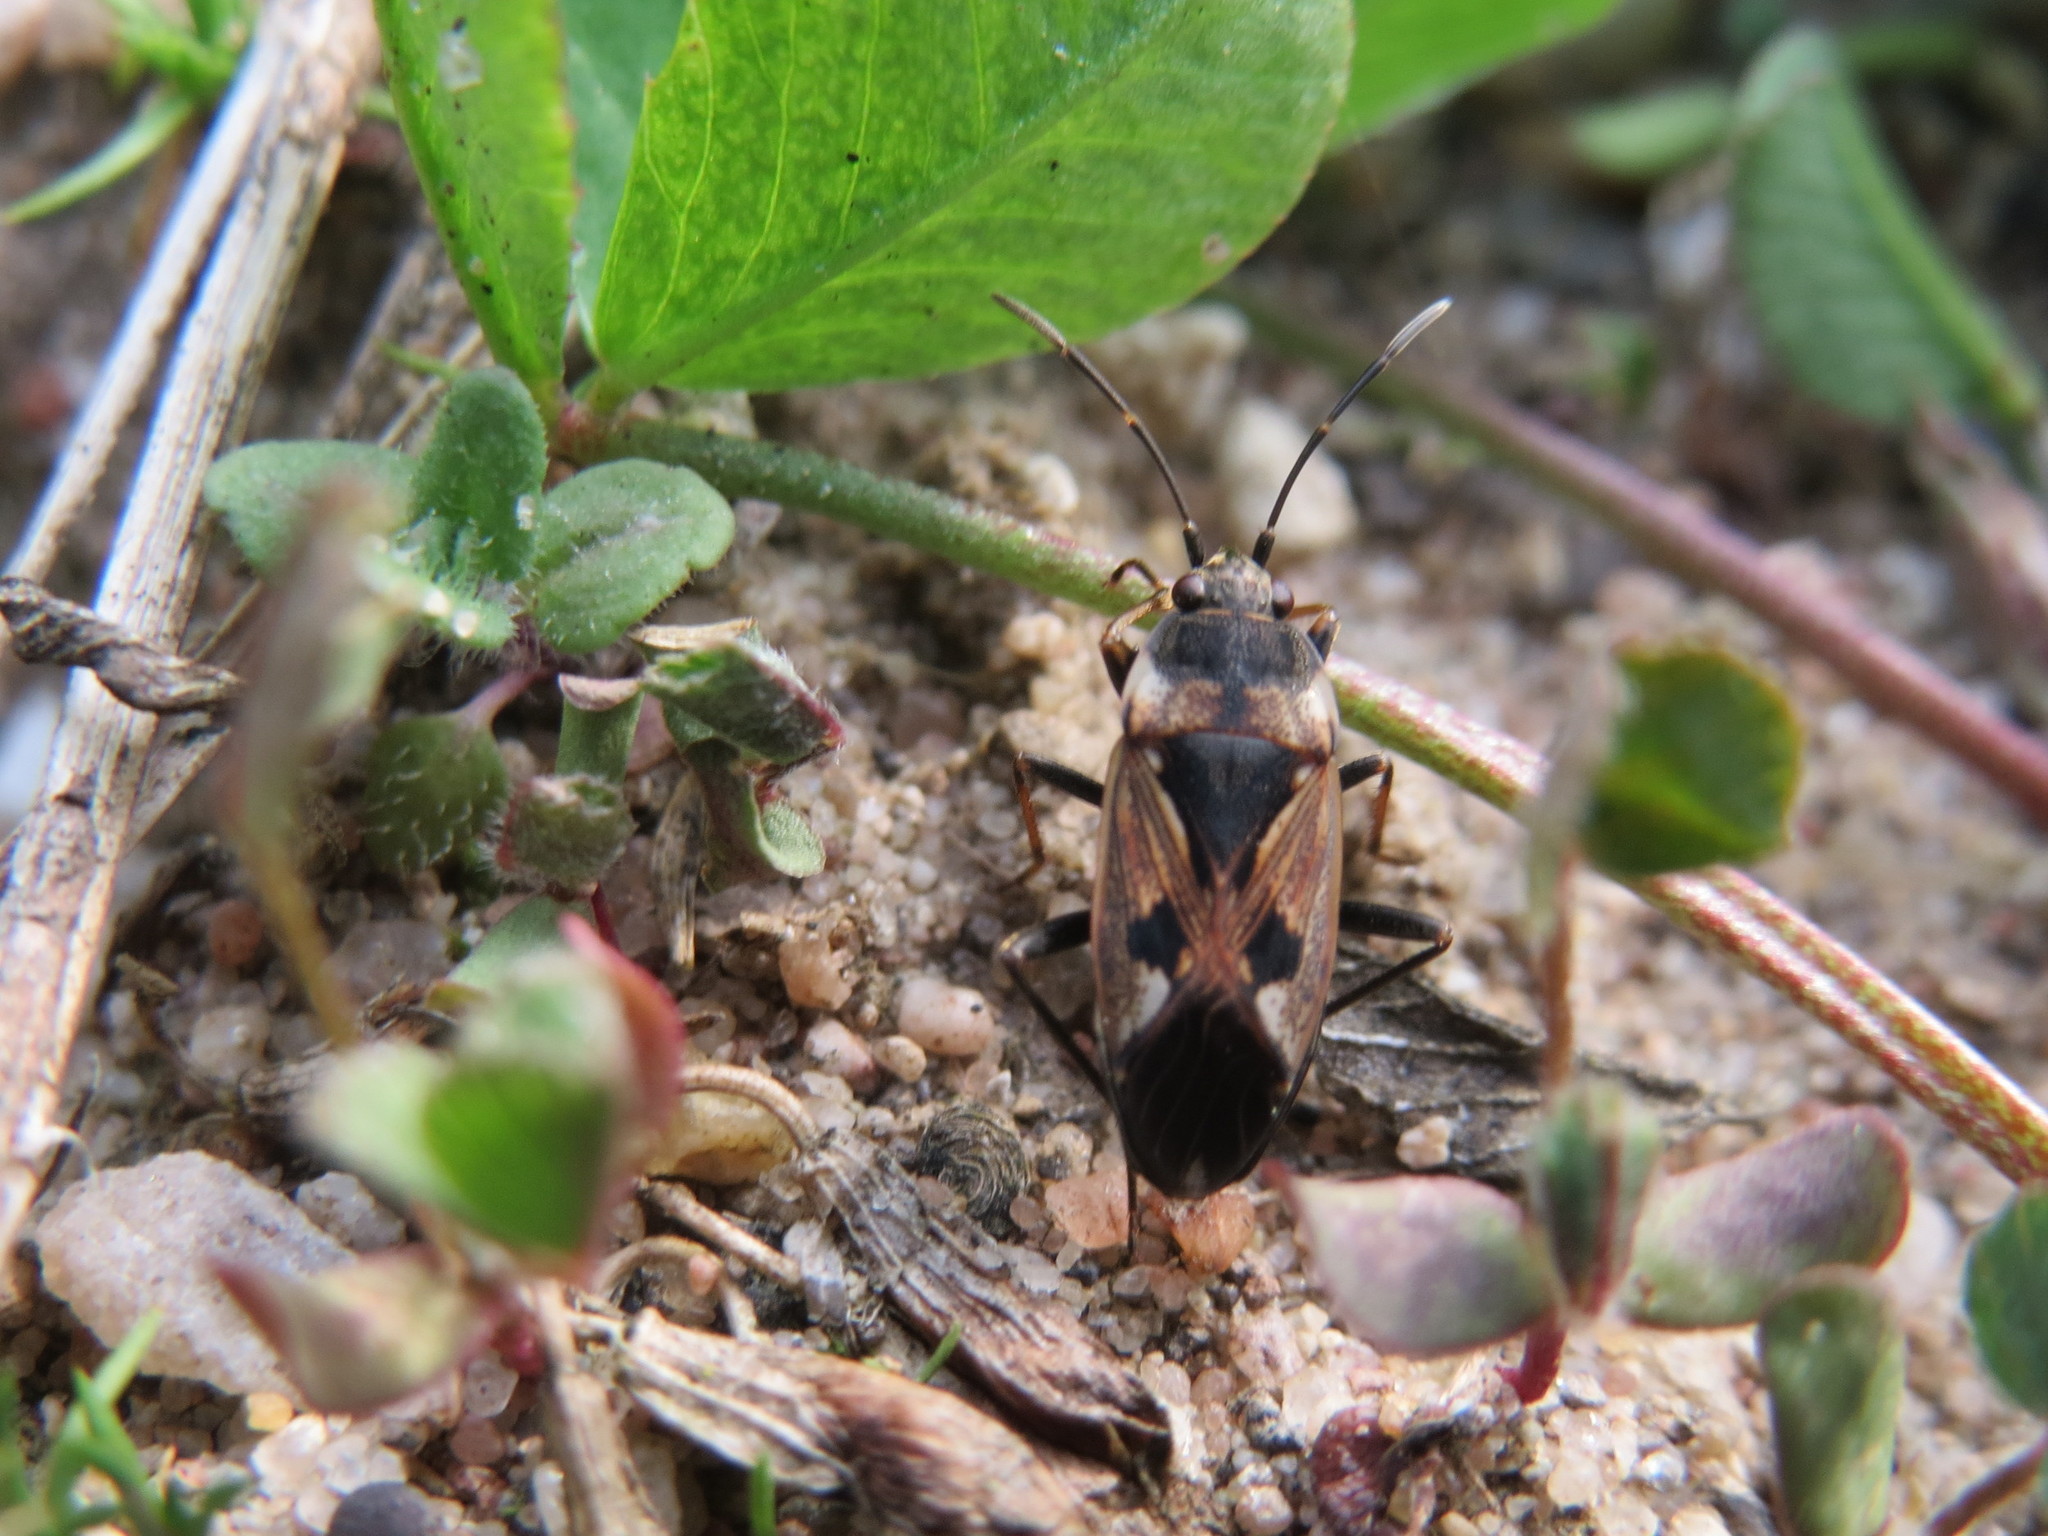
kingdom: Animalia
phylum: Arthropoda
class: Insecta
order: Hemiptera
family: Rhyparochromidae
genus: Rhyparochromus
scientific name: Rhyparochromus vulgaris
